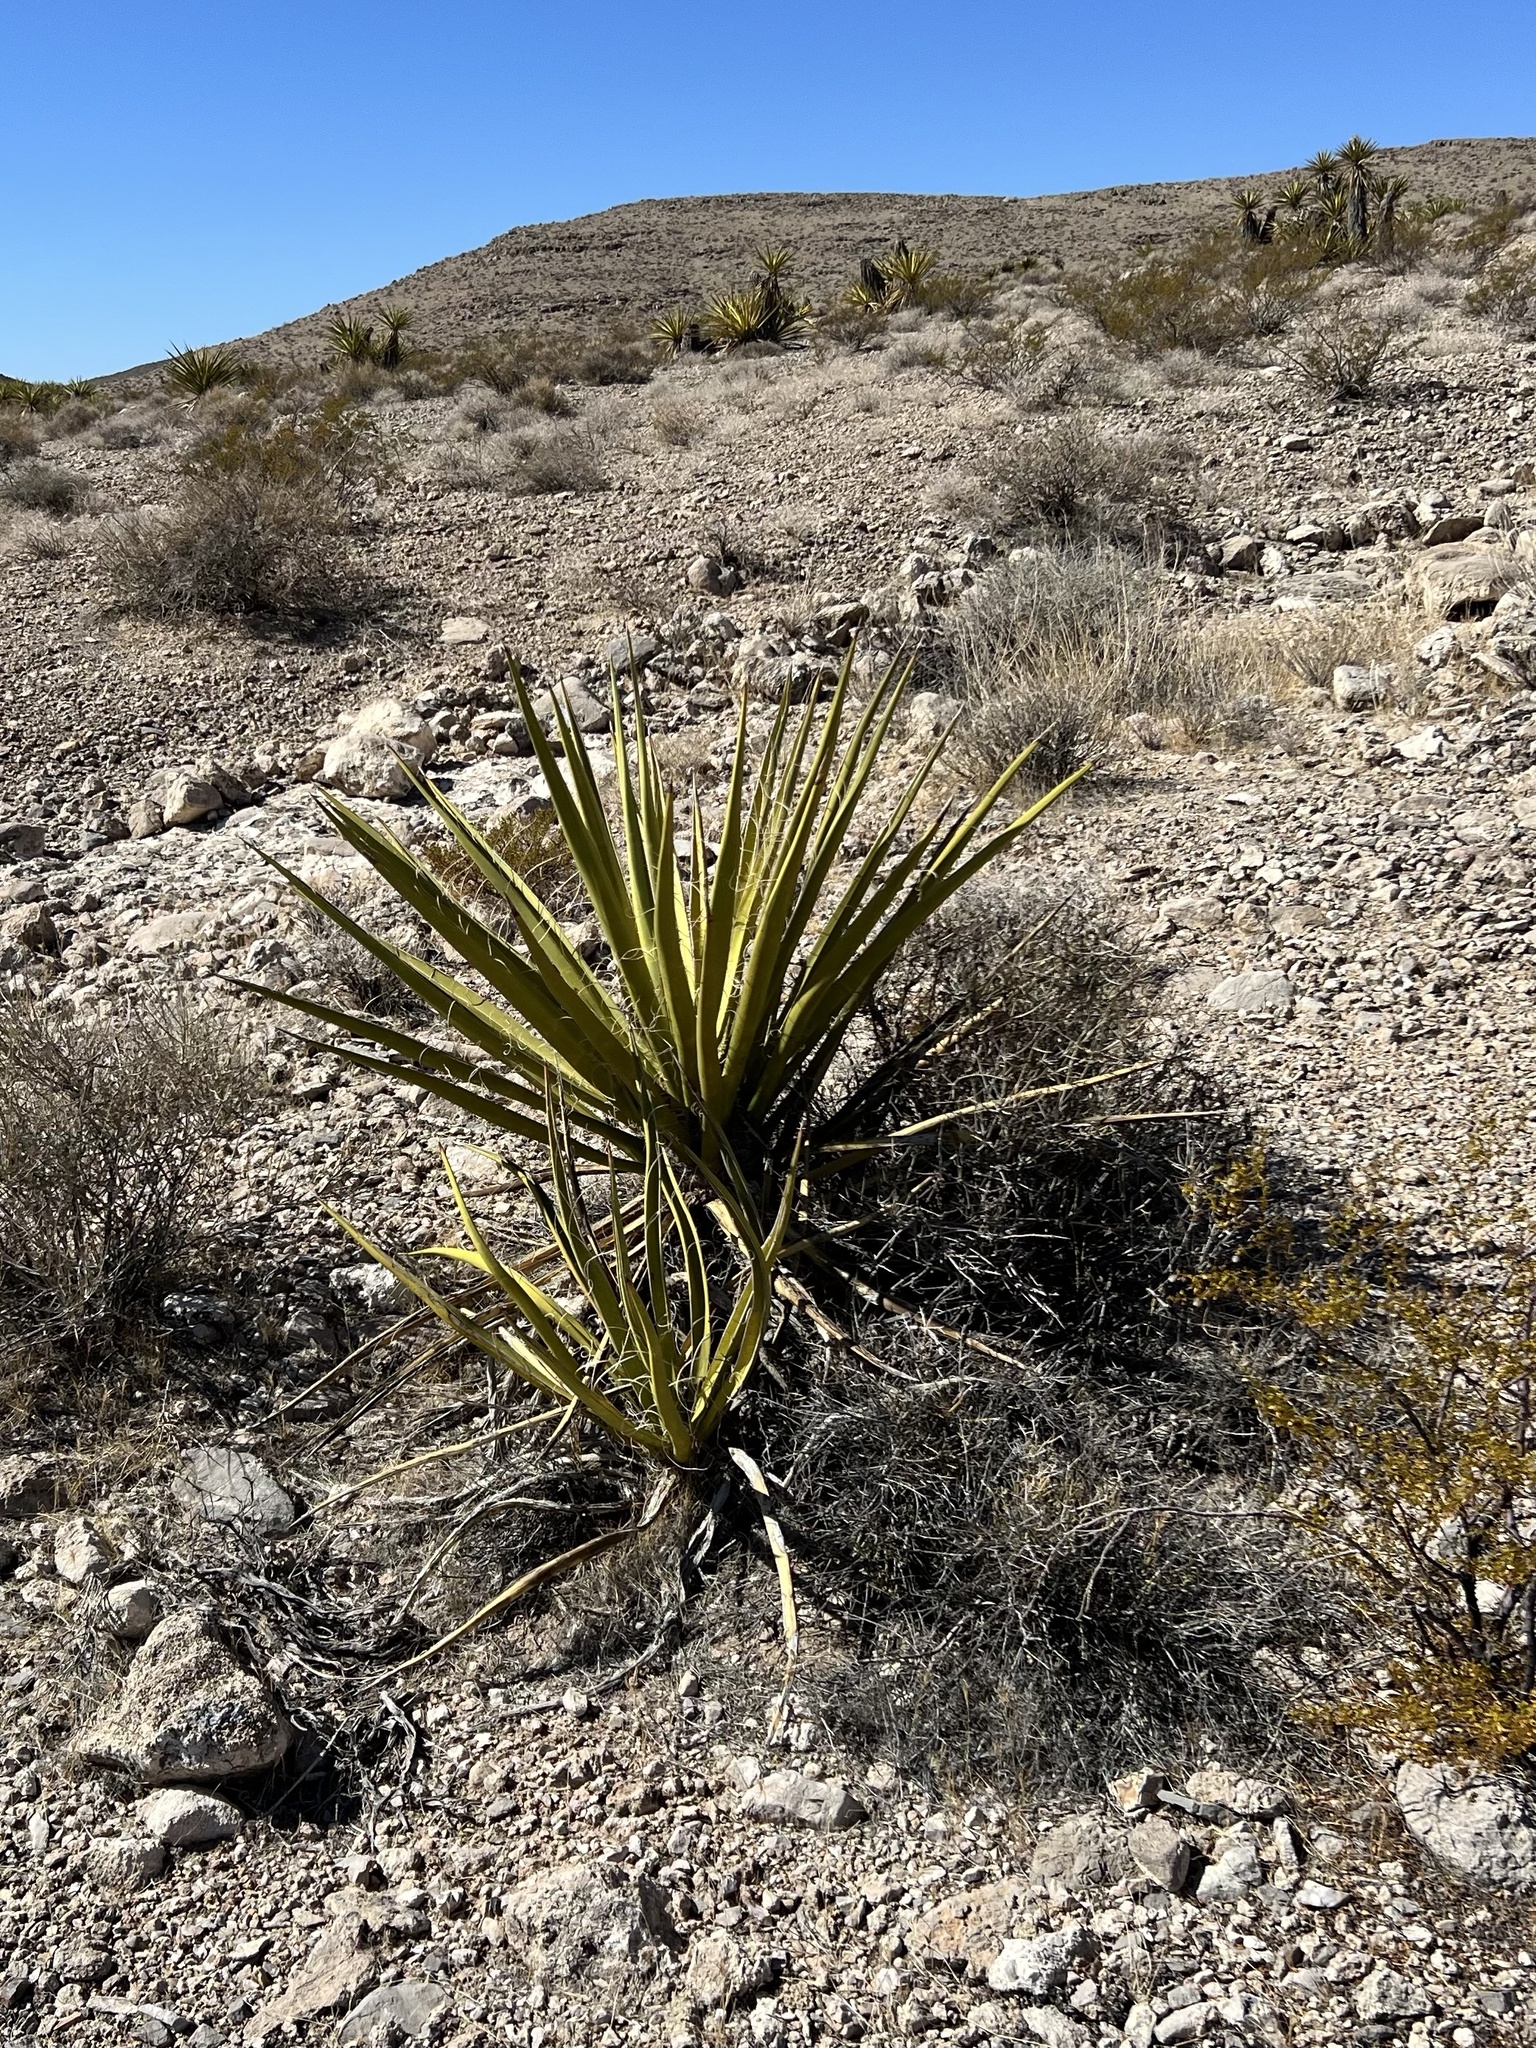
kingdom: Plantae
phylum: Tracheophyta
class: Liliopsida
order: Asparagales
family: Asparagaceae
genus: Yucca
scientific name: Yucca schidigera
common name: Mojave yucca
